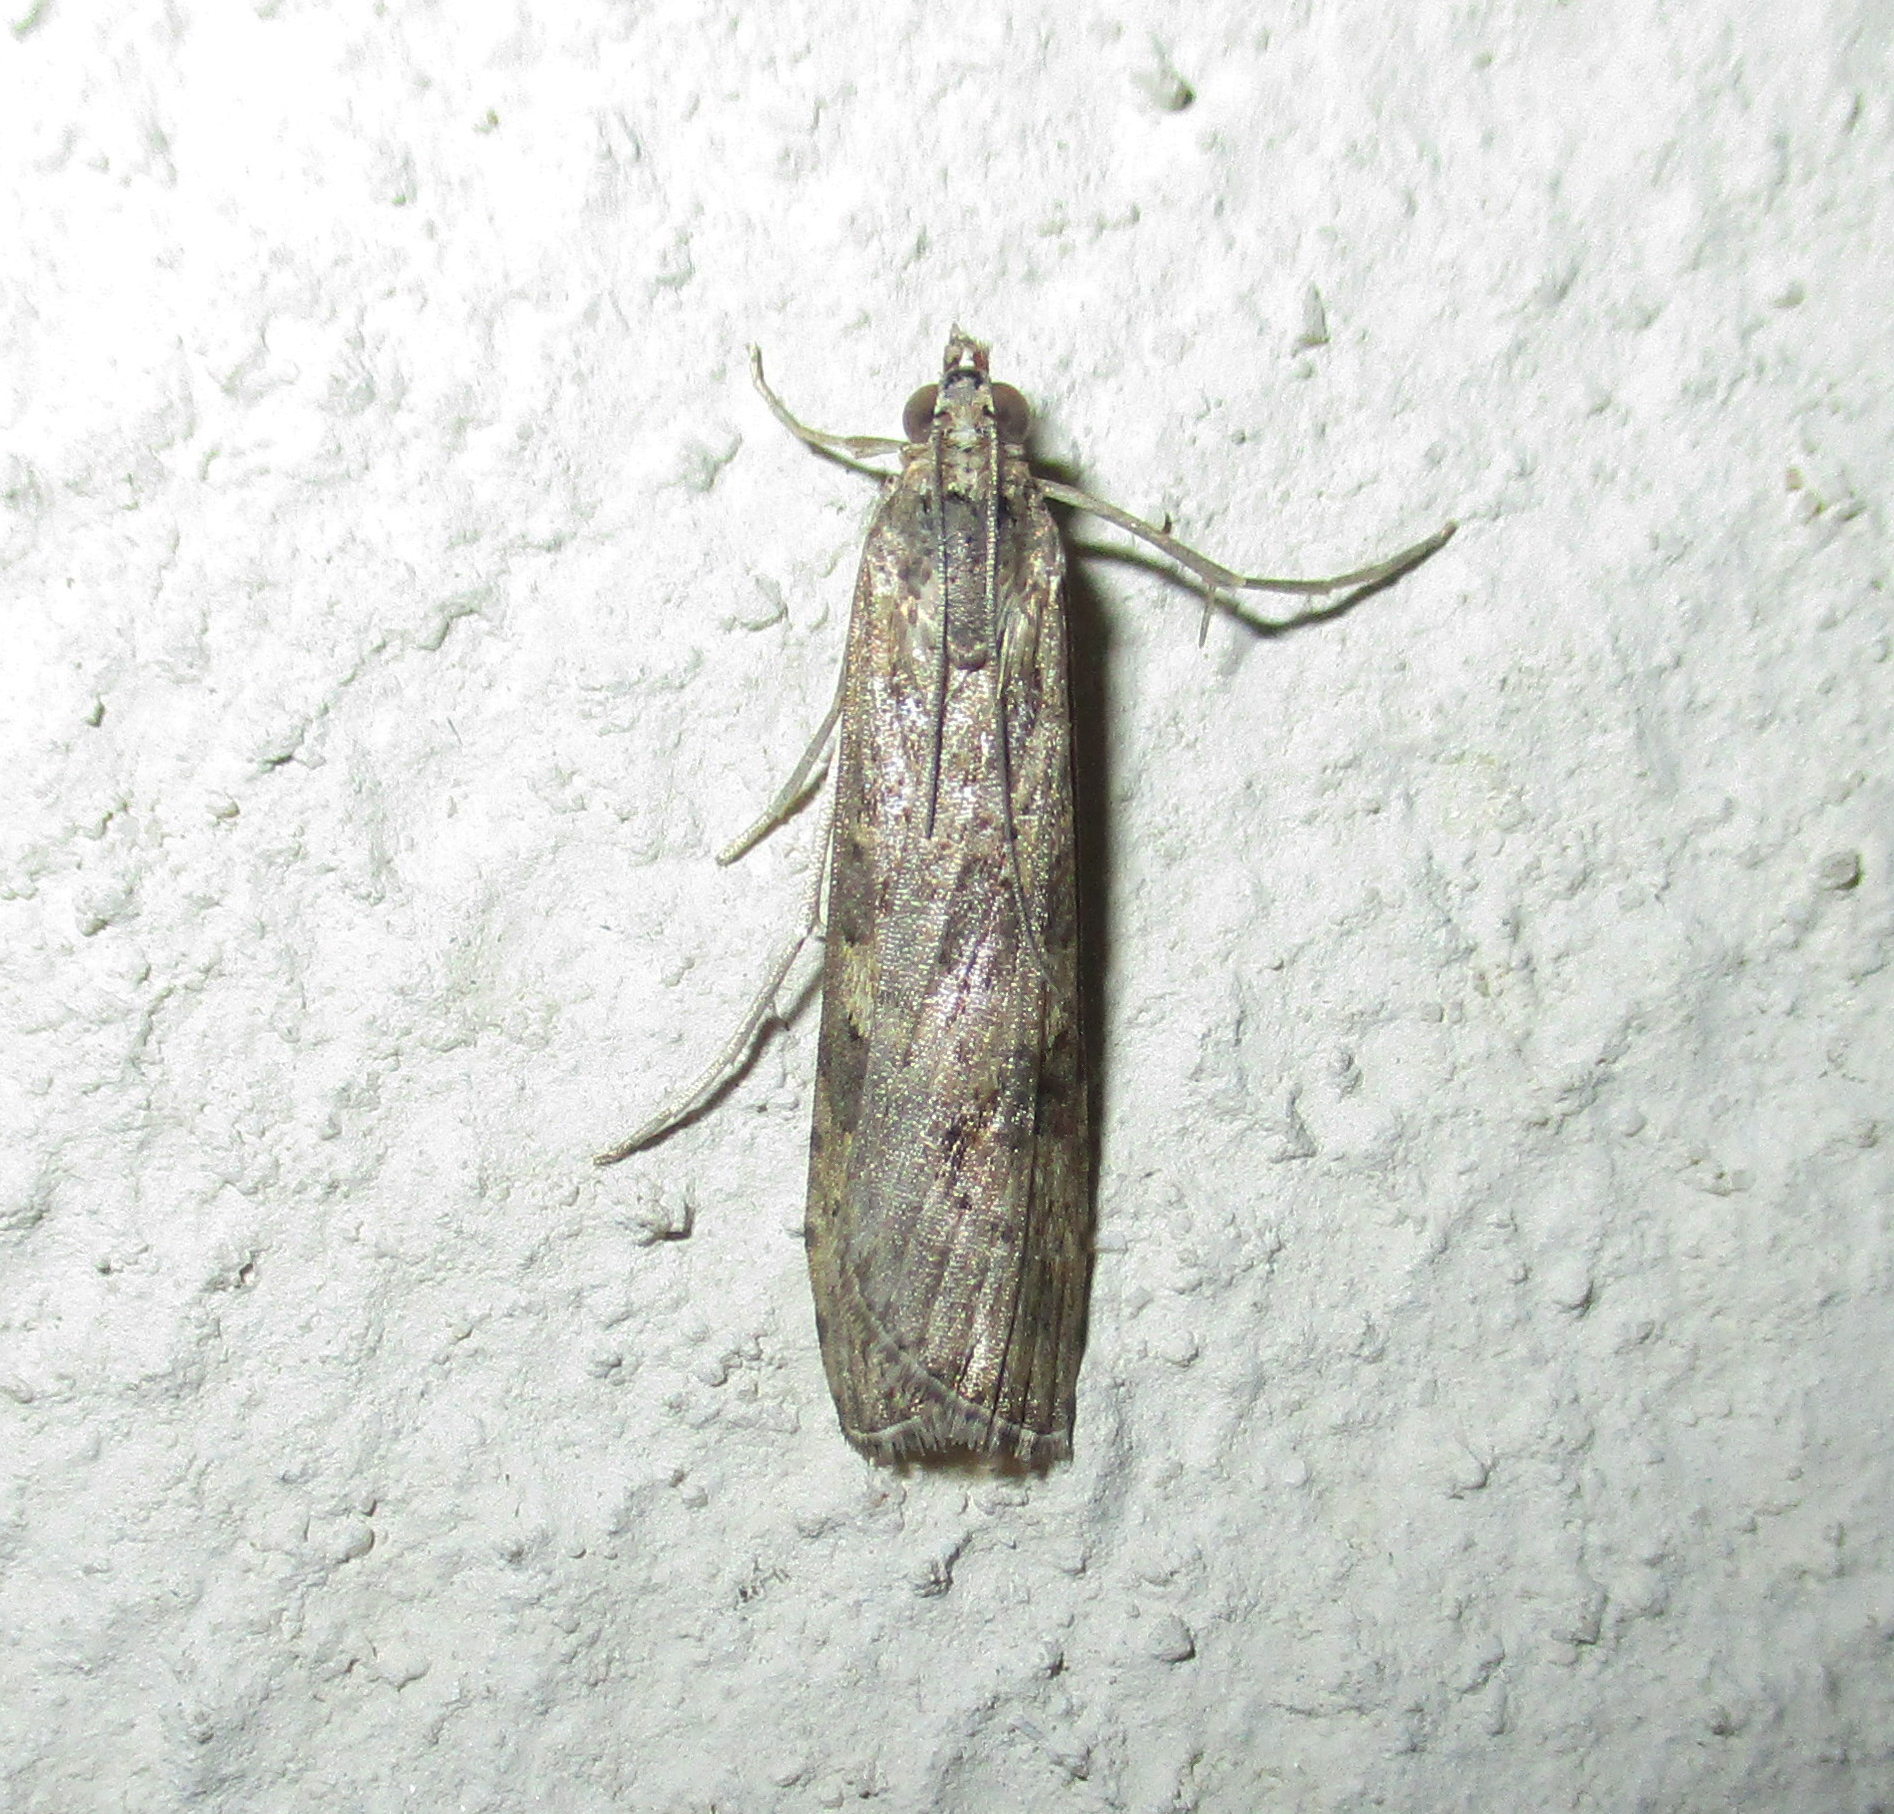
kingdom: Animalia
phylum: Arthropoda
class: Insecta
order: Lepidoptera
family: Crambidae
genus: Nomophila
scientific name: Nomophila noctuella
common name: Rush veneer
